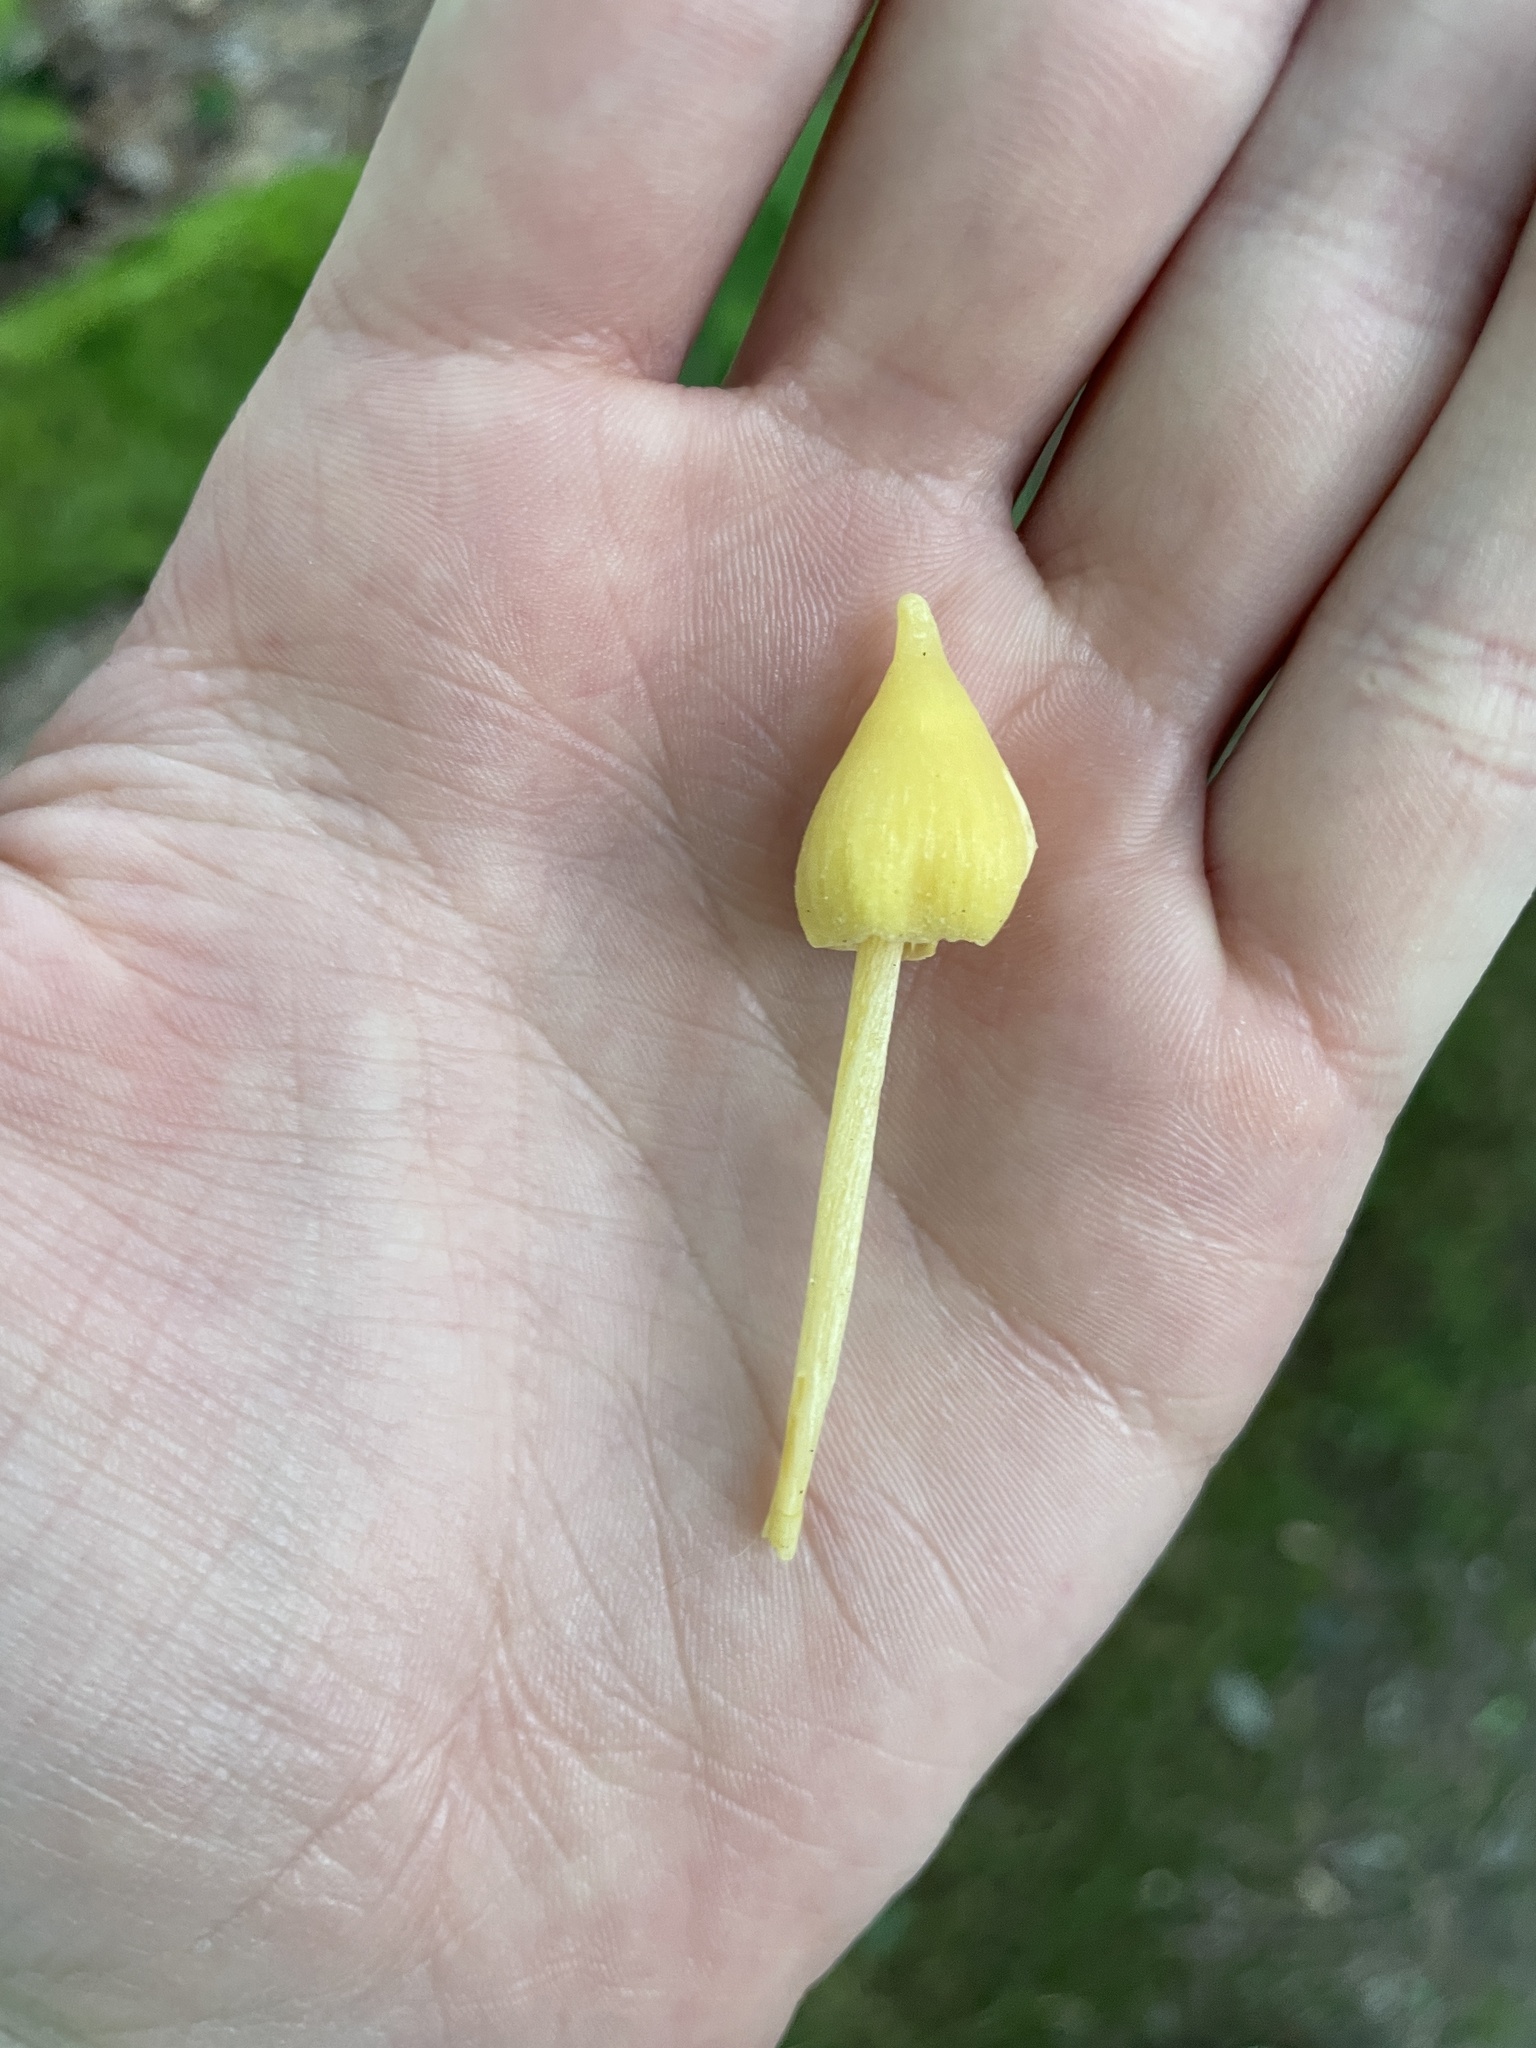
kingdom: Fungi
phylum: Basidiomycota
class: Agaricomycetes
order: Agaricales
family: Entolomataceae
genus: Entoloma
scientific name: Entoloma murrayi
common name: Yellow unicorn entoloma
